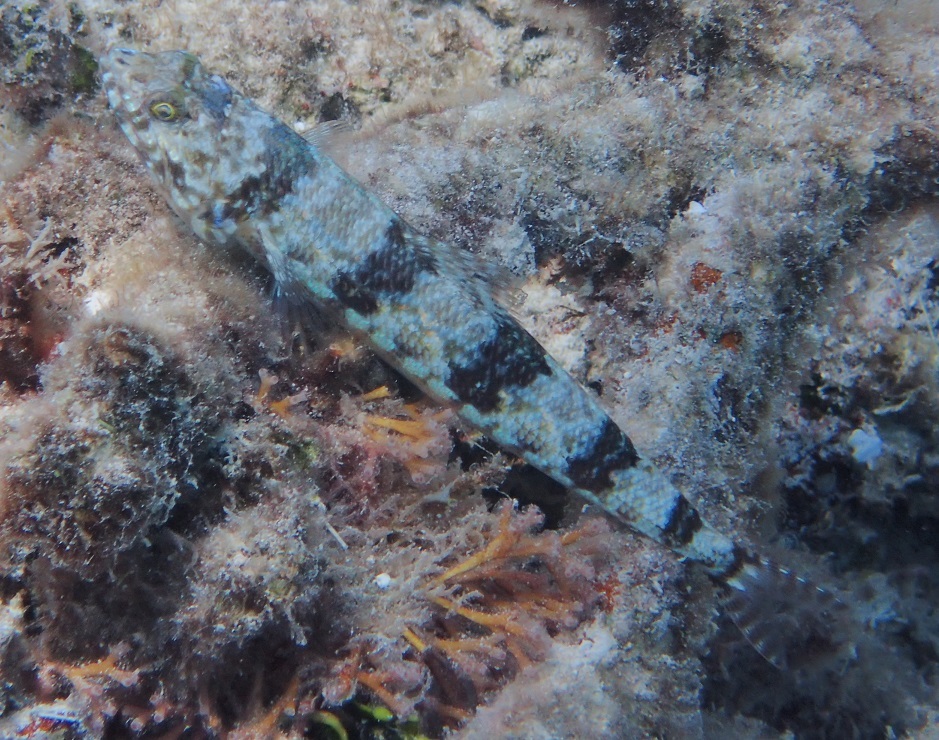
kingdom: Animalia
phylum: Chordata
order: Aulopiformes
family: Synodontidae
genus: Synodus
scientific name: Synodus variegatus
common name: Variegated lizardfish
